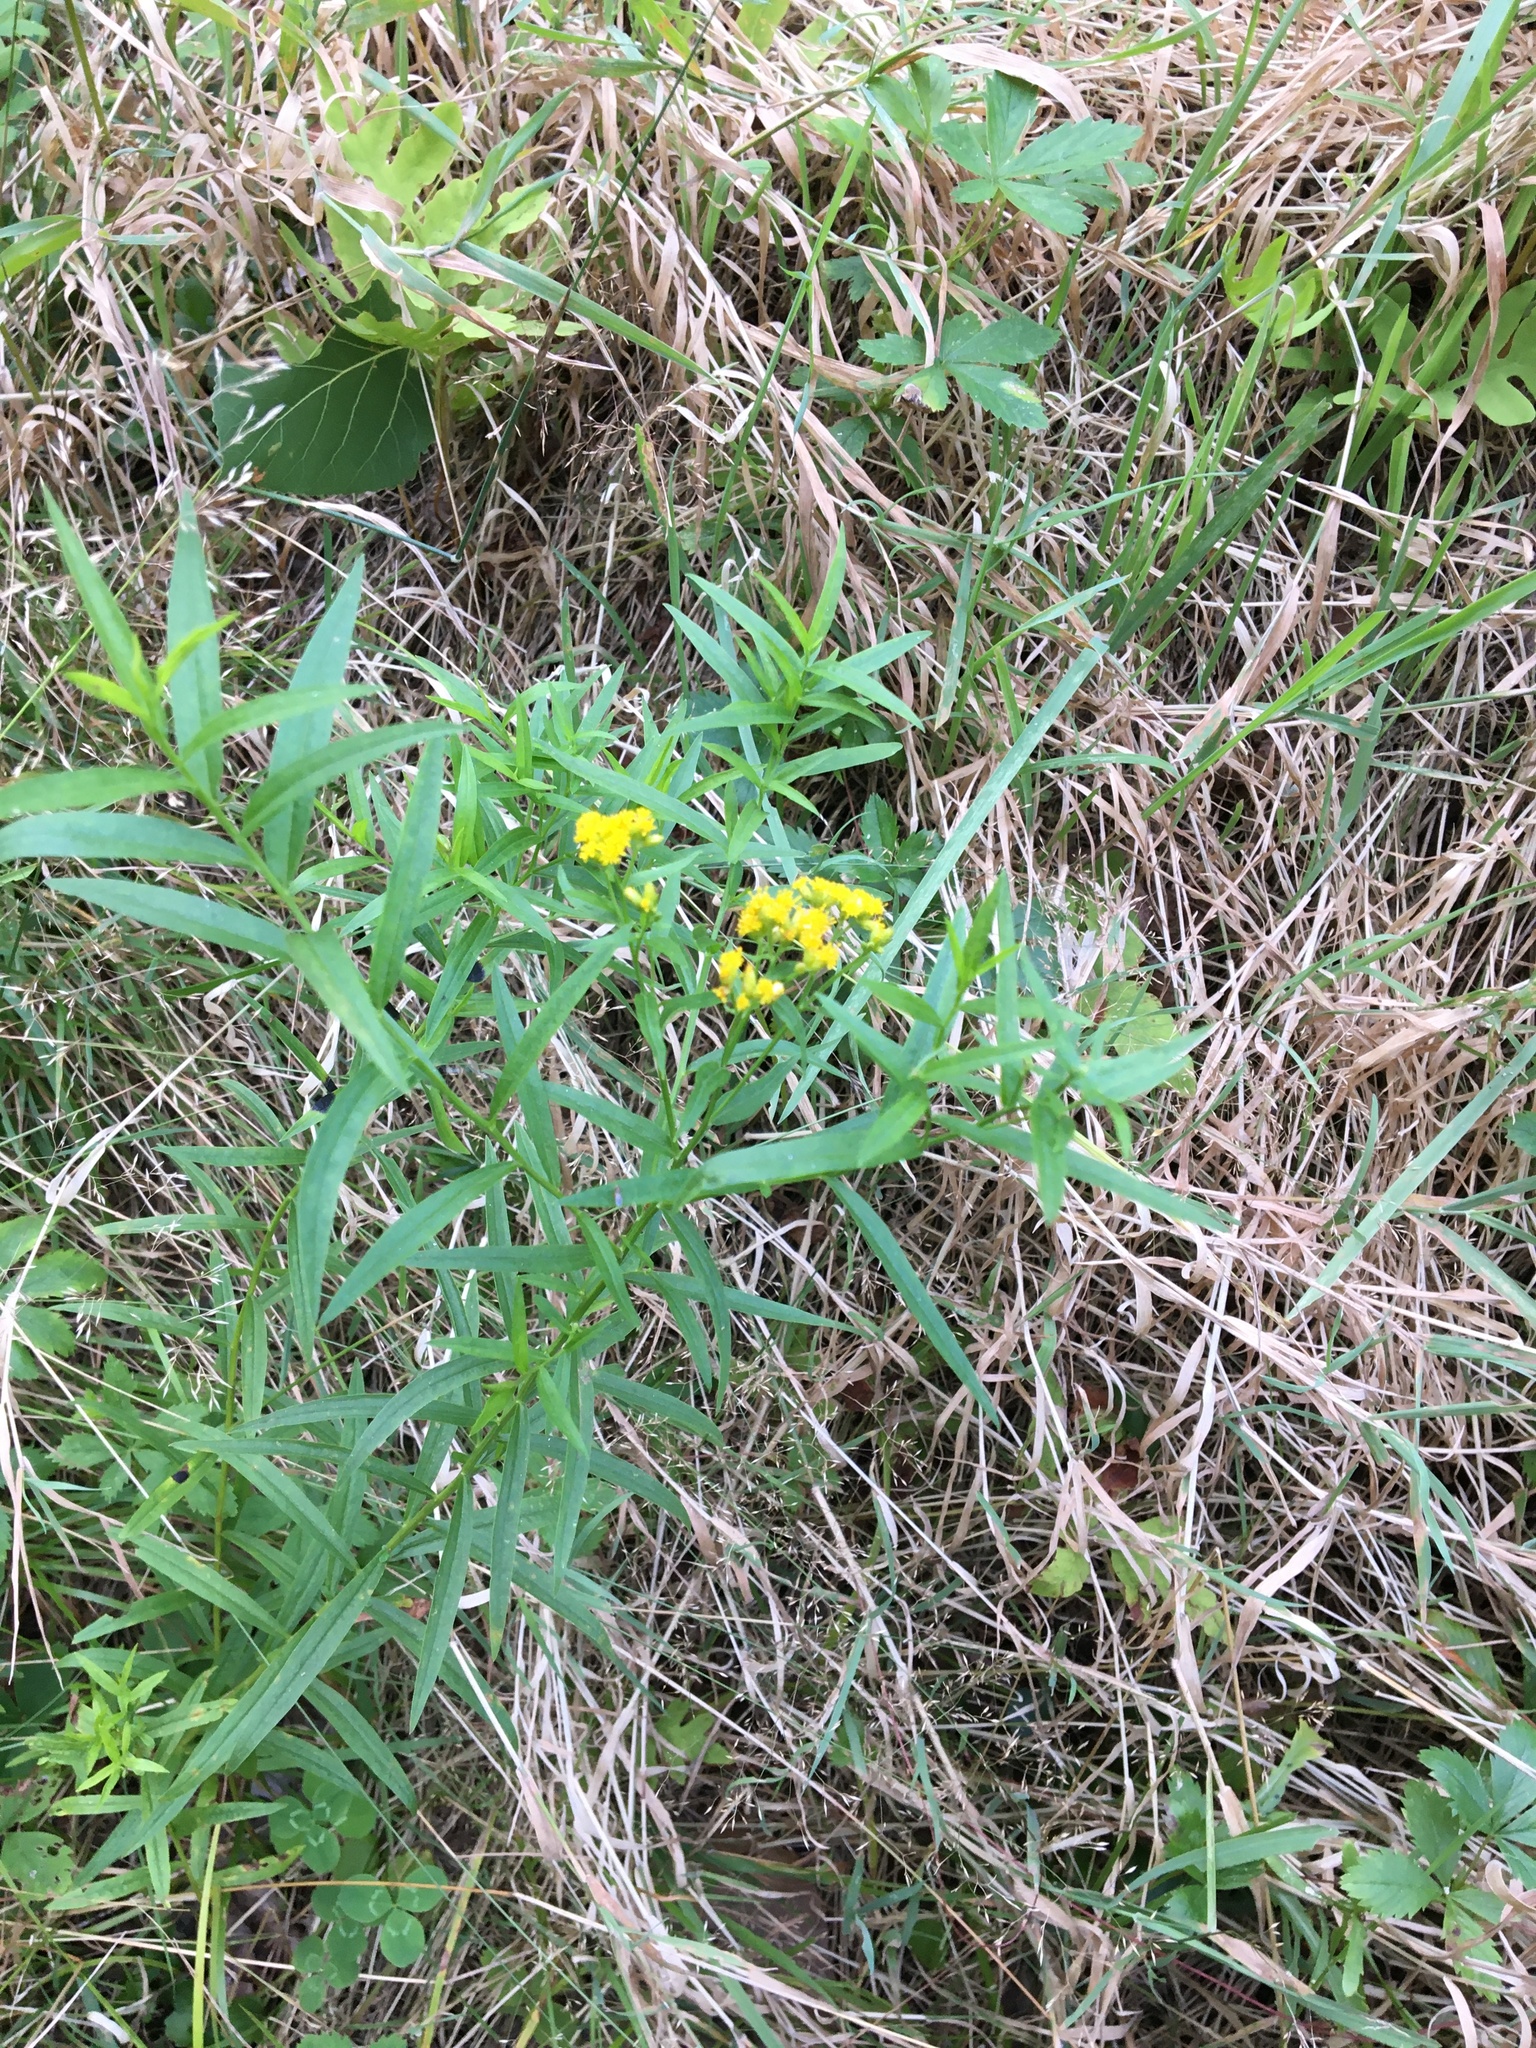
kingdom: Plantae
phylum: Tracheophyta
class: Magnoliopsida
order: Asterales
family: Asteraceae
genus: Euthamia
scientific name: Euthamia graminifolia
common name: Common goldentop
